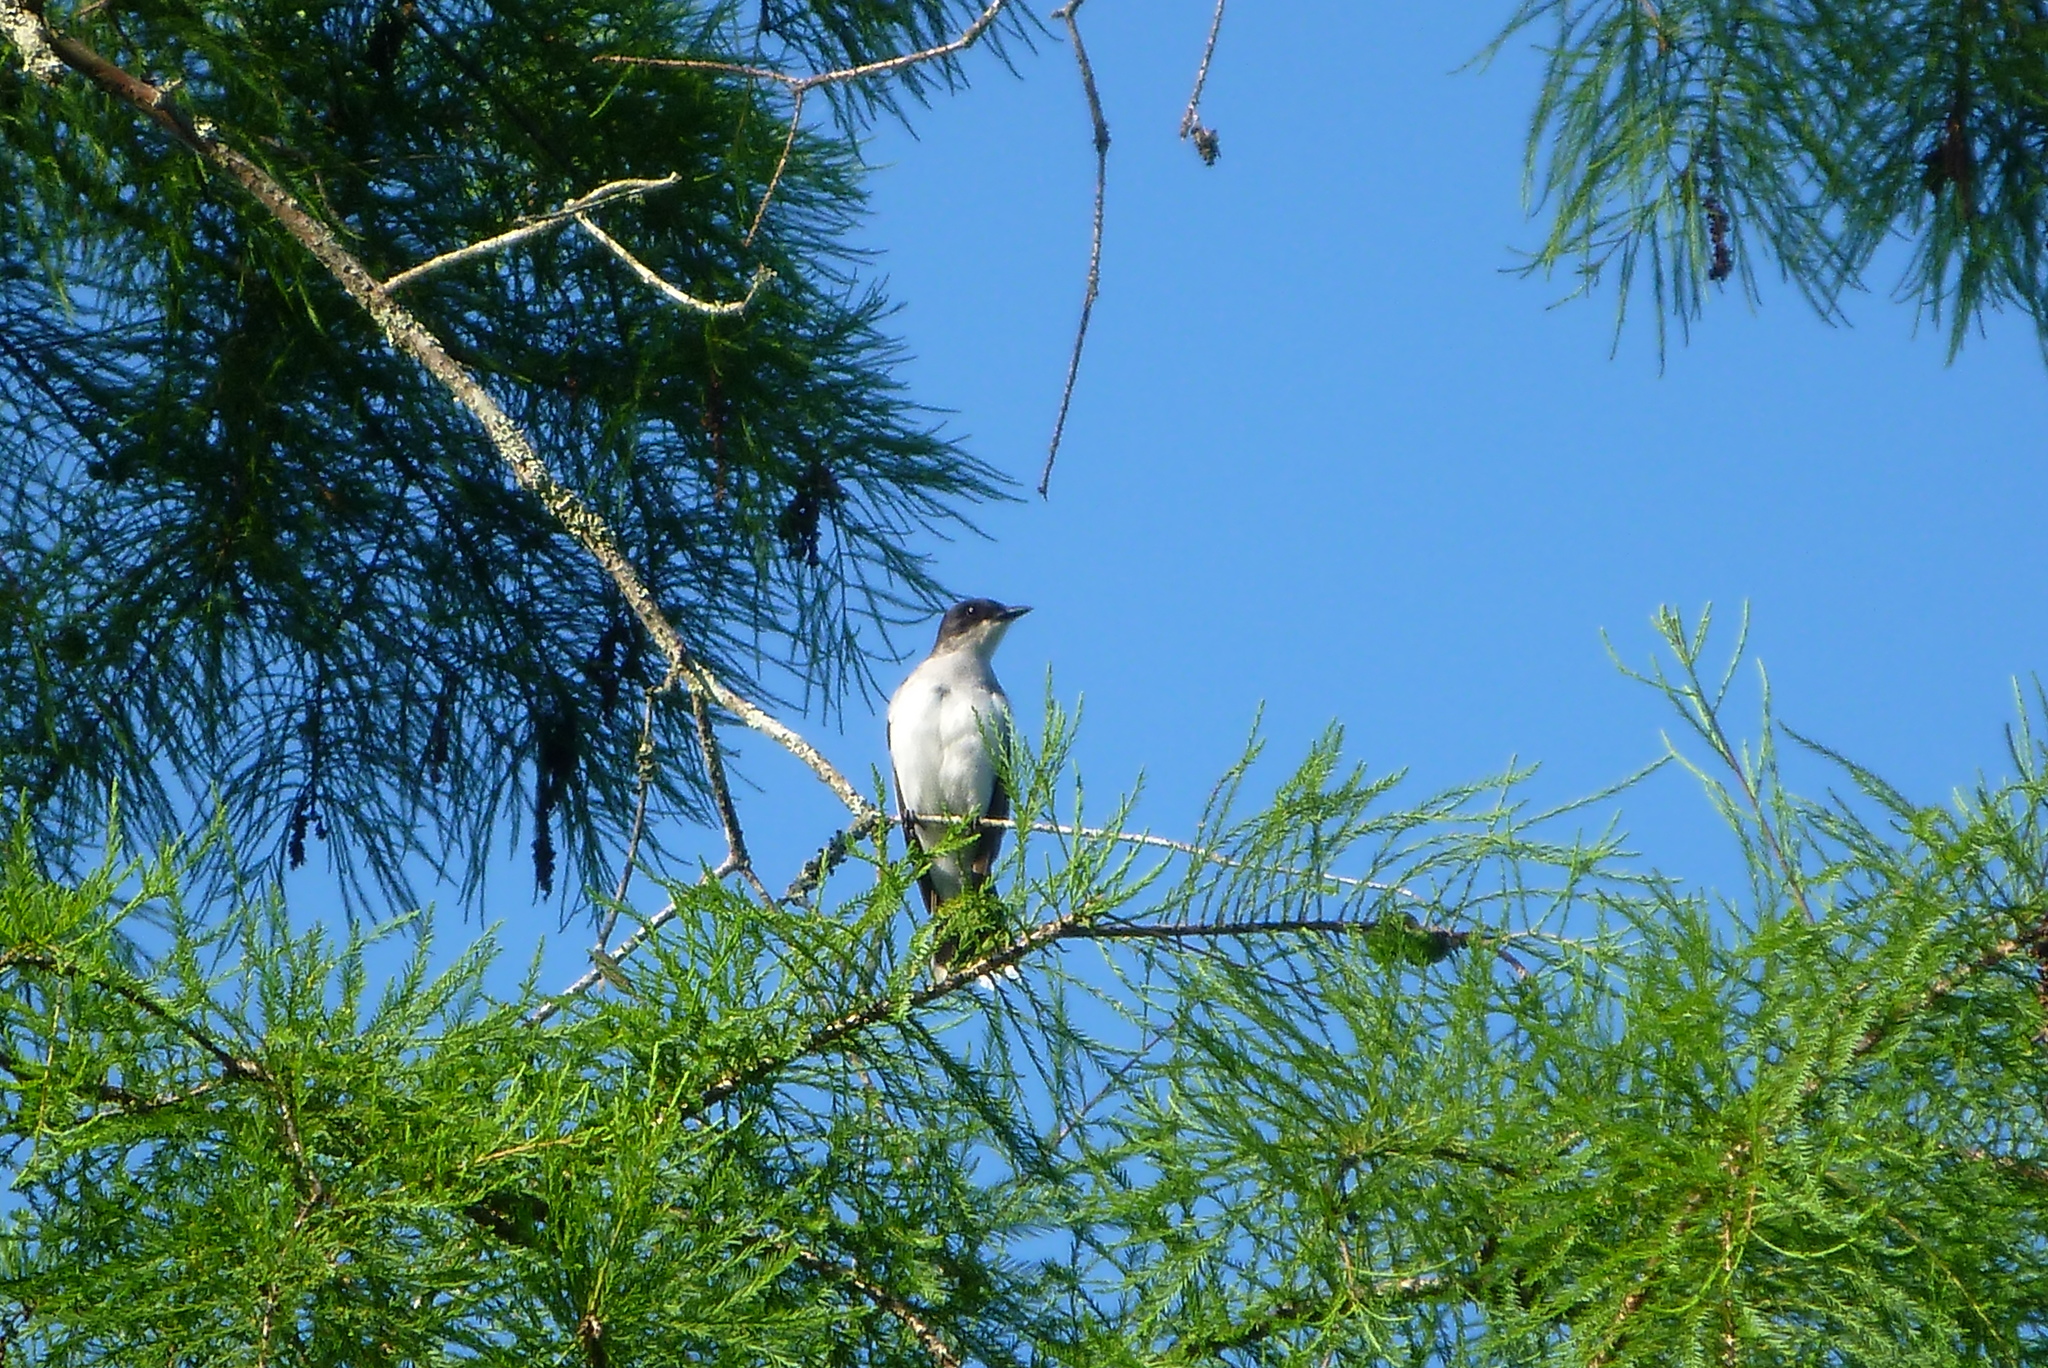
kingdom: Animalia
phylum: Chordata
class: Aves
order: Passeriformes
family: Tyrannidae
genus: Tyrannus
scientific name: Tyrannus tyrannus
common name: Eastern kingbird
